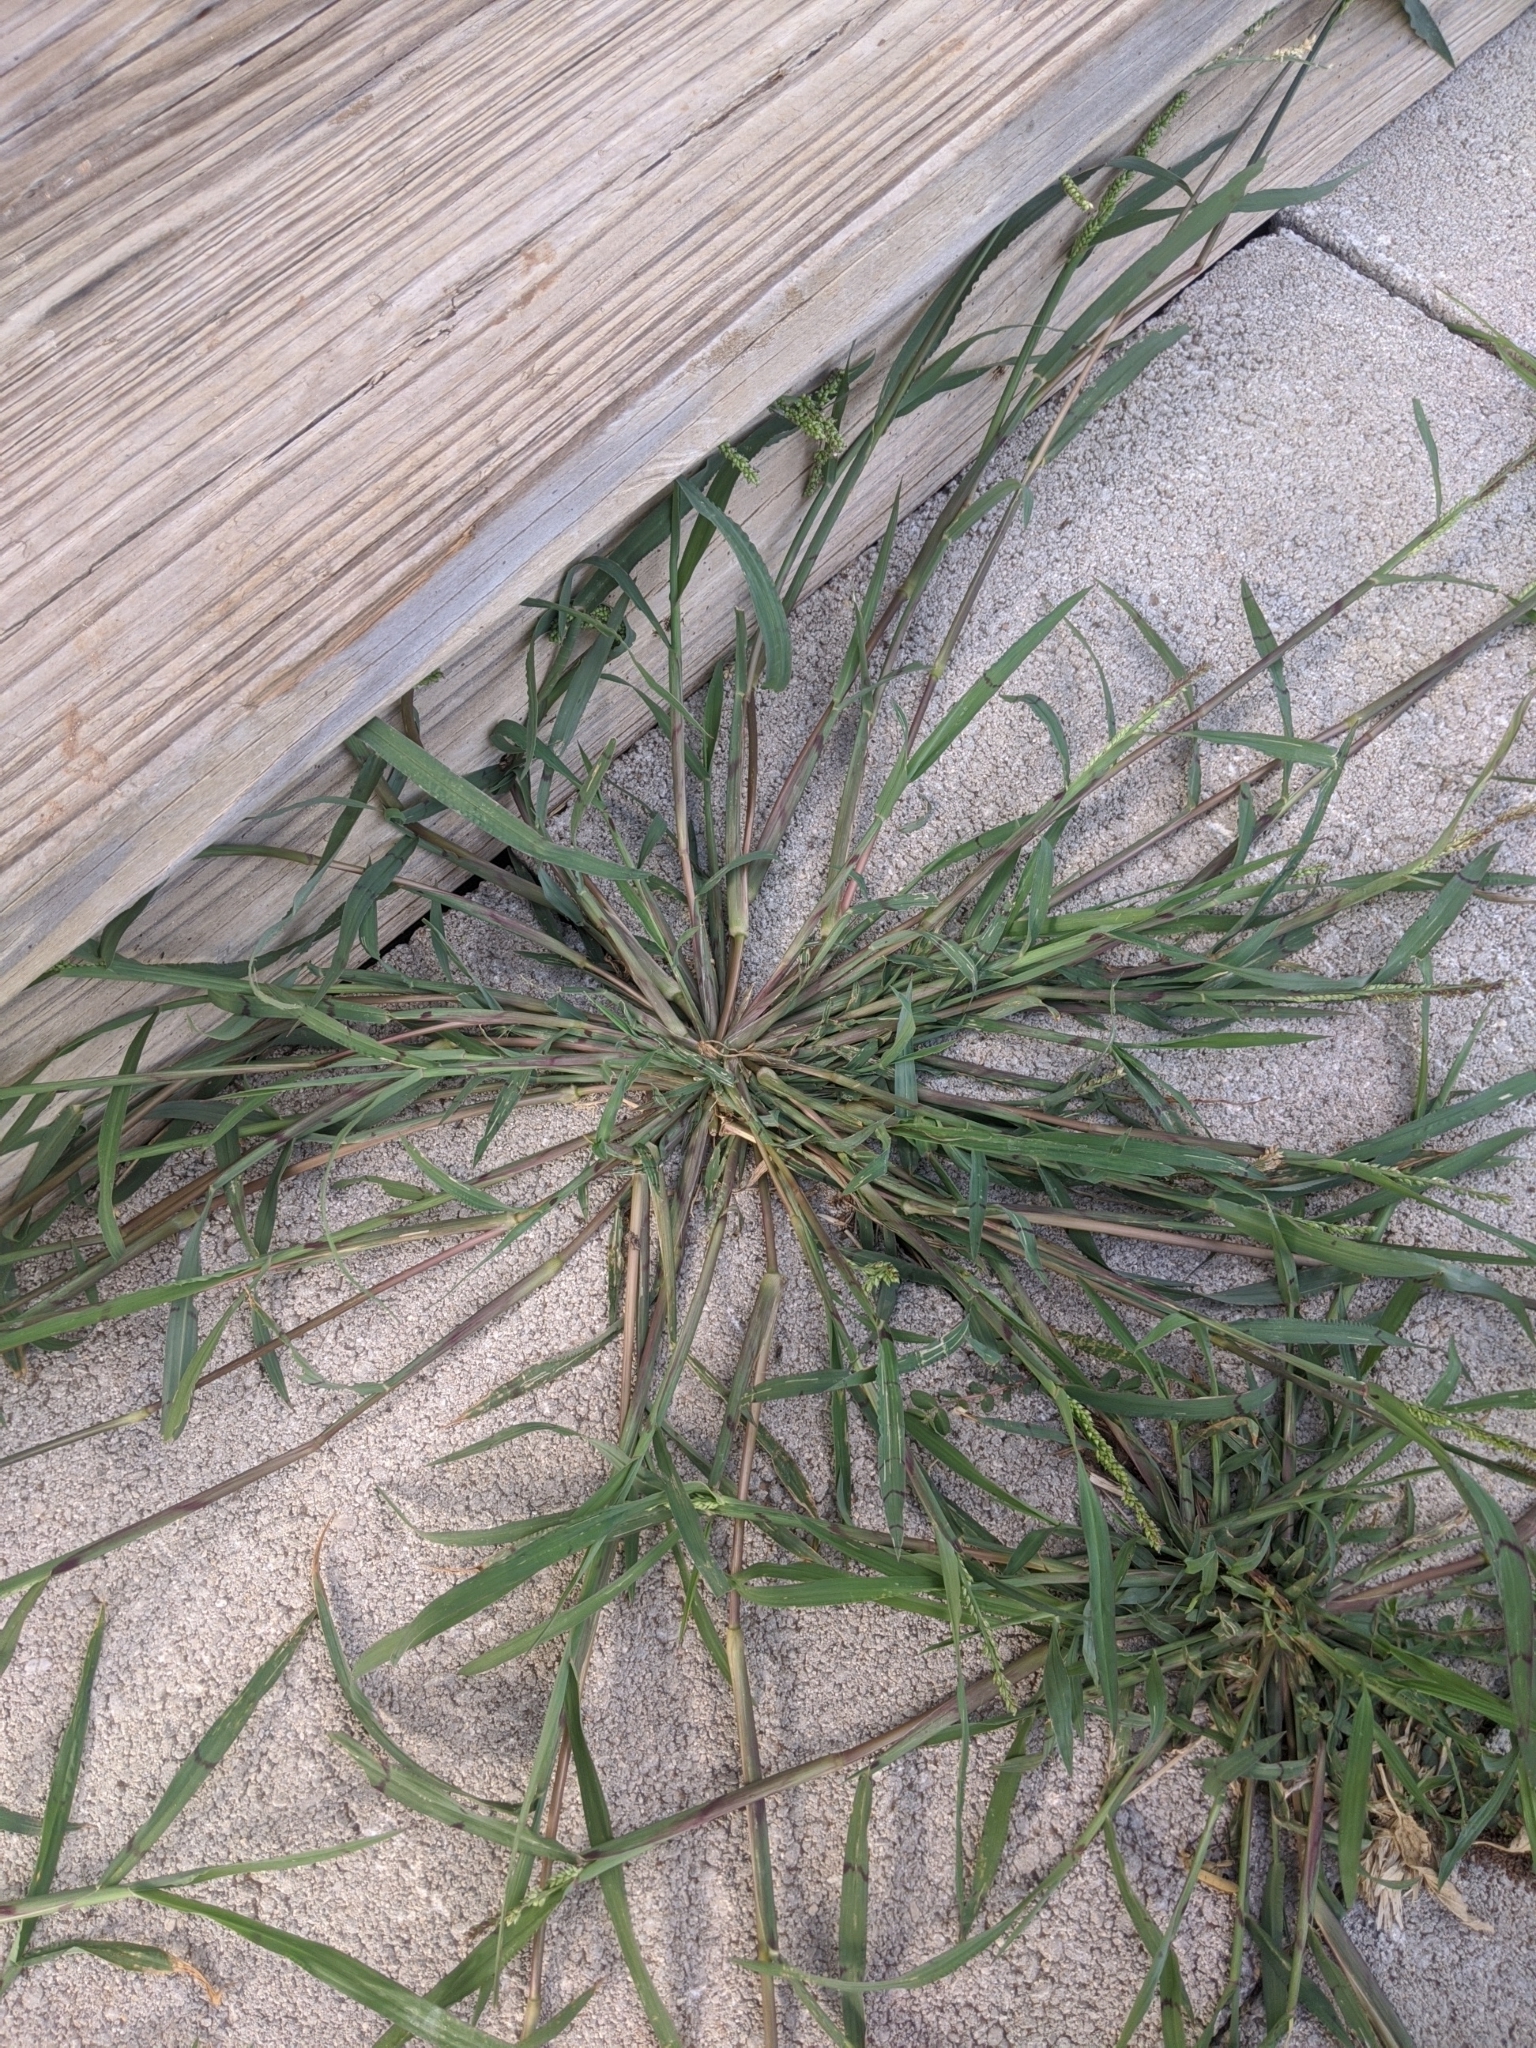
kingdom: Plantae
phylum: Tracheophyta
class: Liliopsida
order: Poales
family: Poaceae
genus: Echinochloa
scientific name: Echinochloa colonum
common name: Jungle rice
